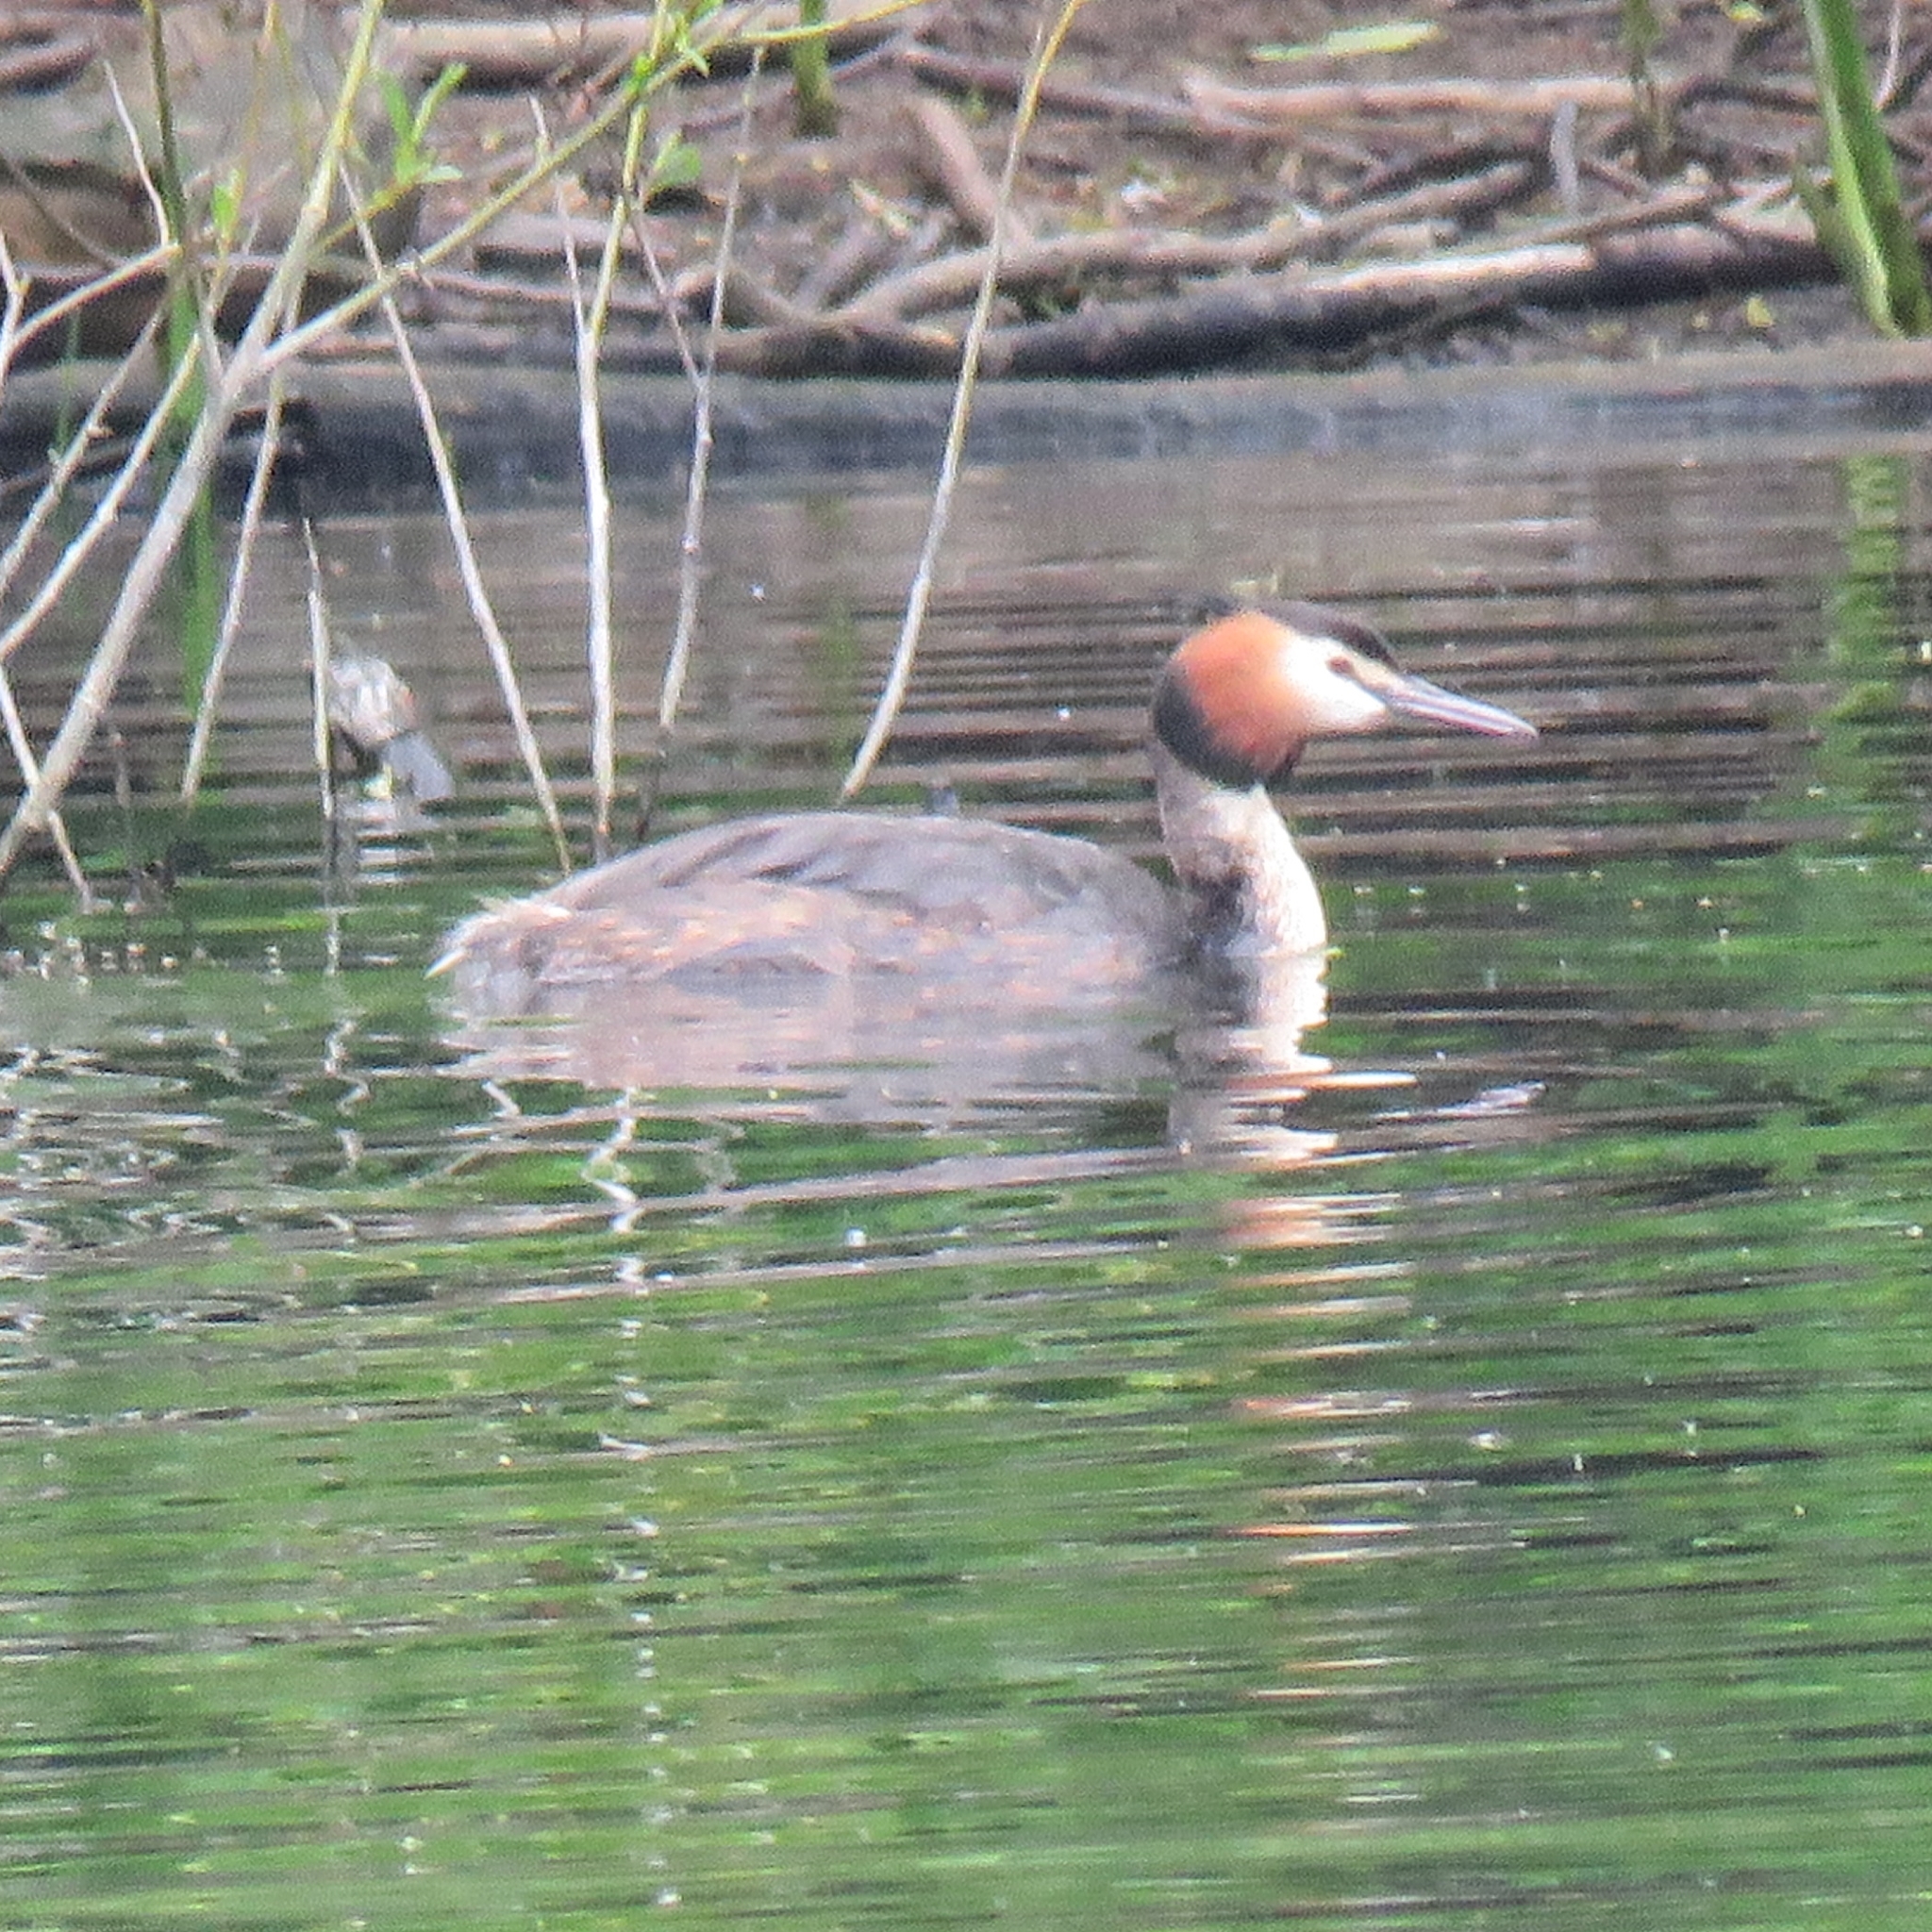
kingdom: Animalia
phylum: Chordata
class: Aves
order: Podicipediformes
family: Podicipedidae
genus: Podiceps
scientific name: Podiceps cristatus
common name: Great crested grebe
